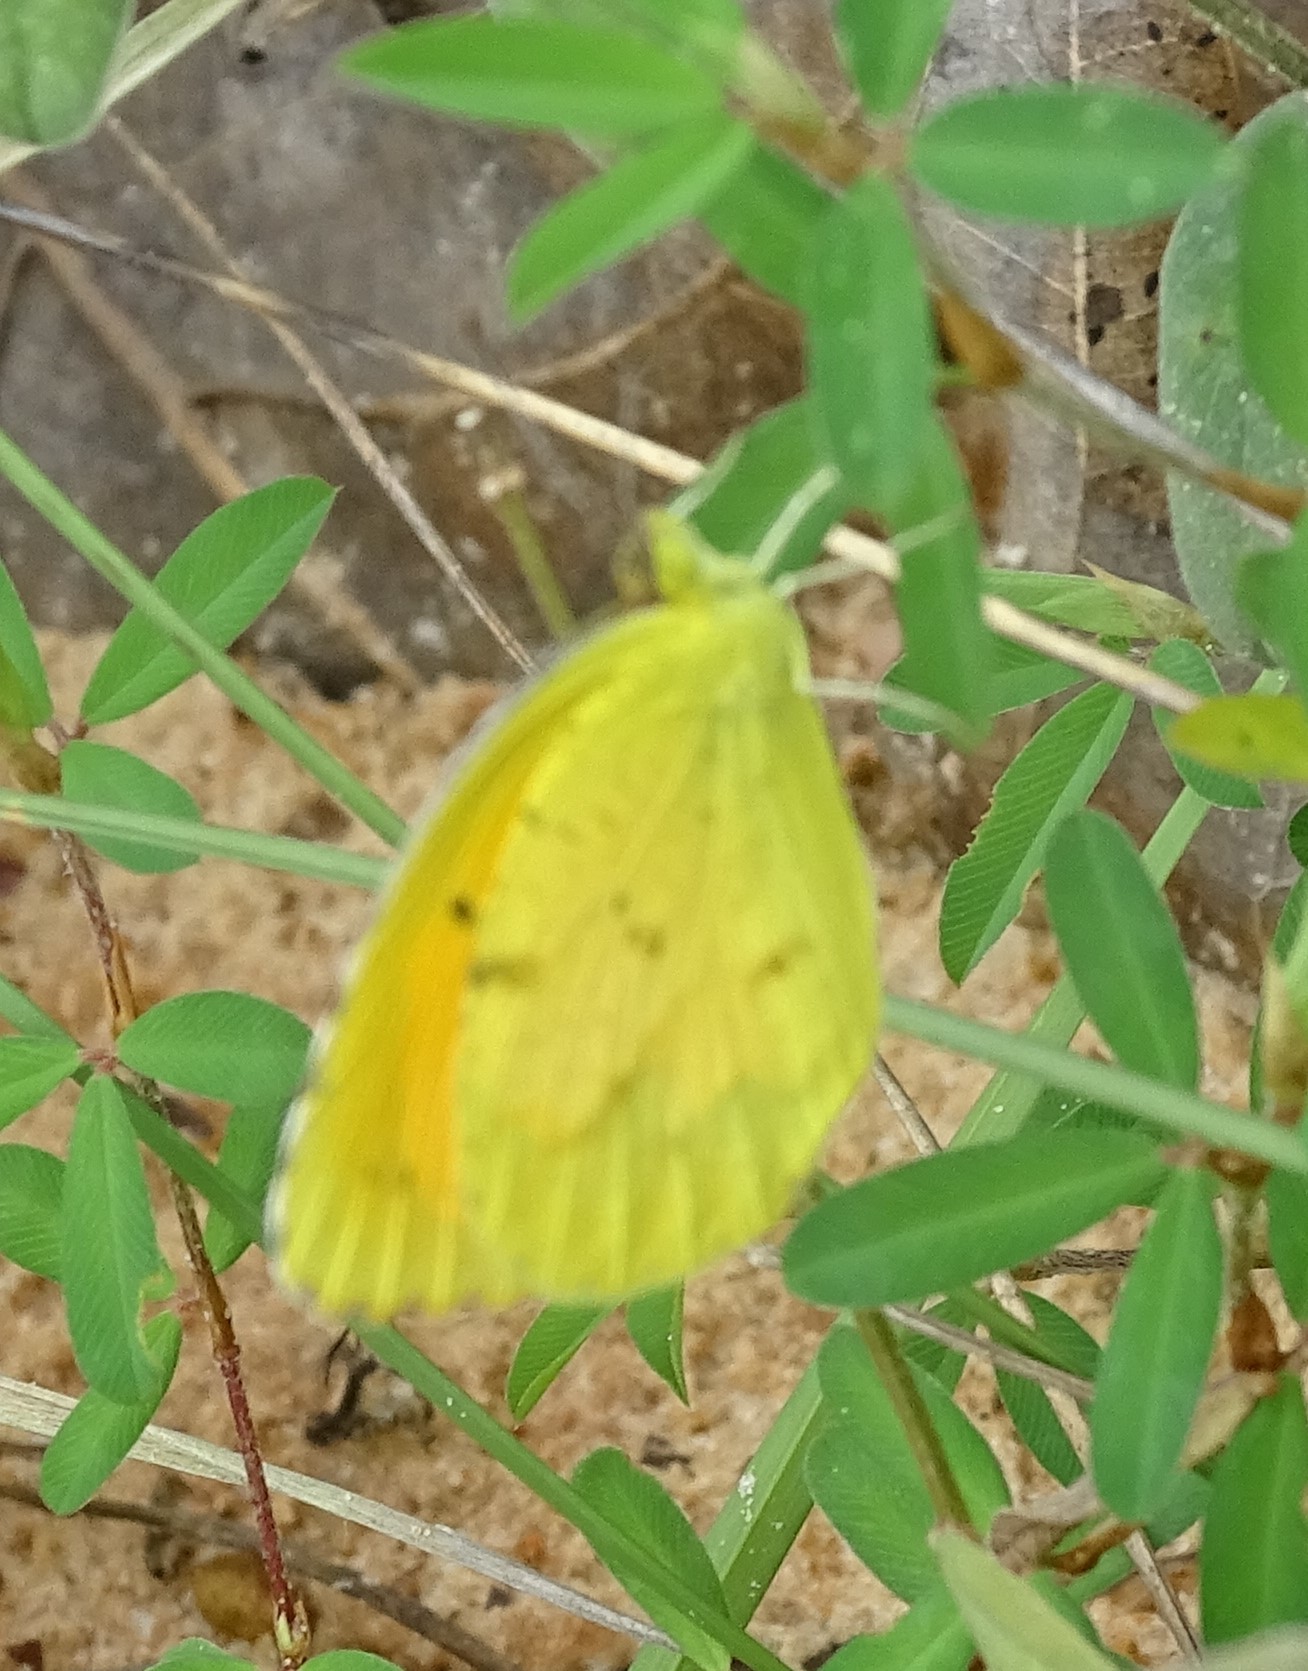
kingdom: Animalia
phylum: Arthropoda
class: Insecta
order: Lepidoptera
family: Pieridae
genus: Abaeis
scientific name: Abaeis nicippe
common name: Sleepy orange
